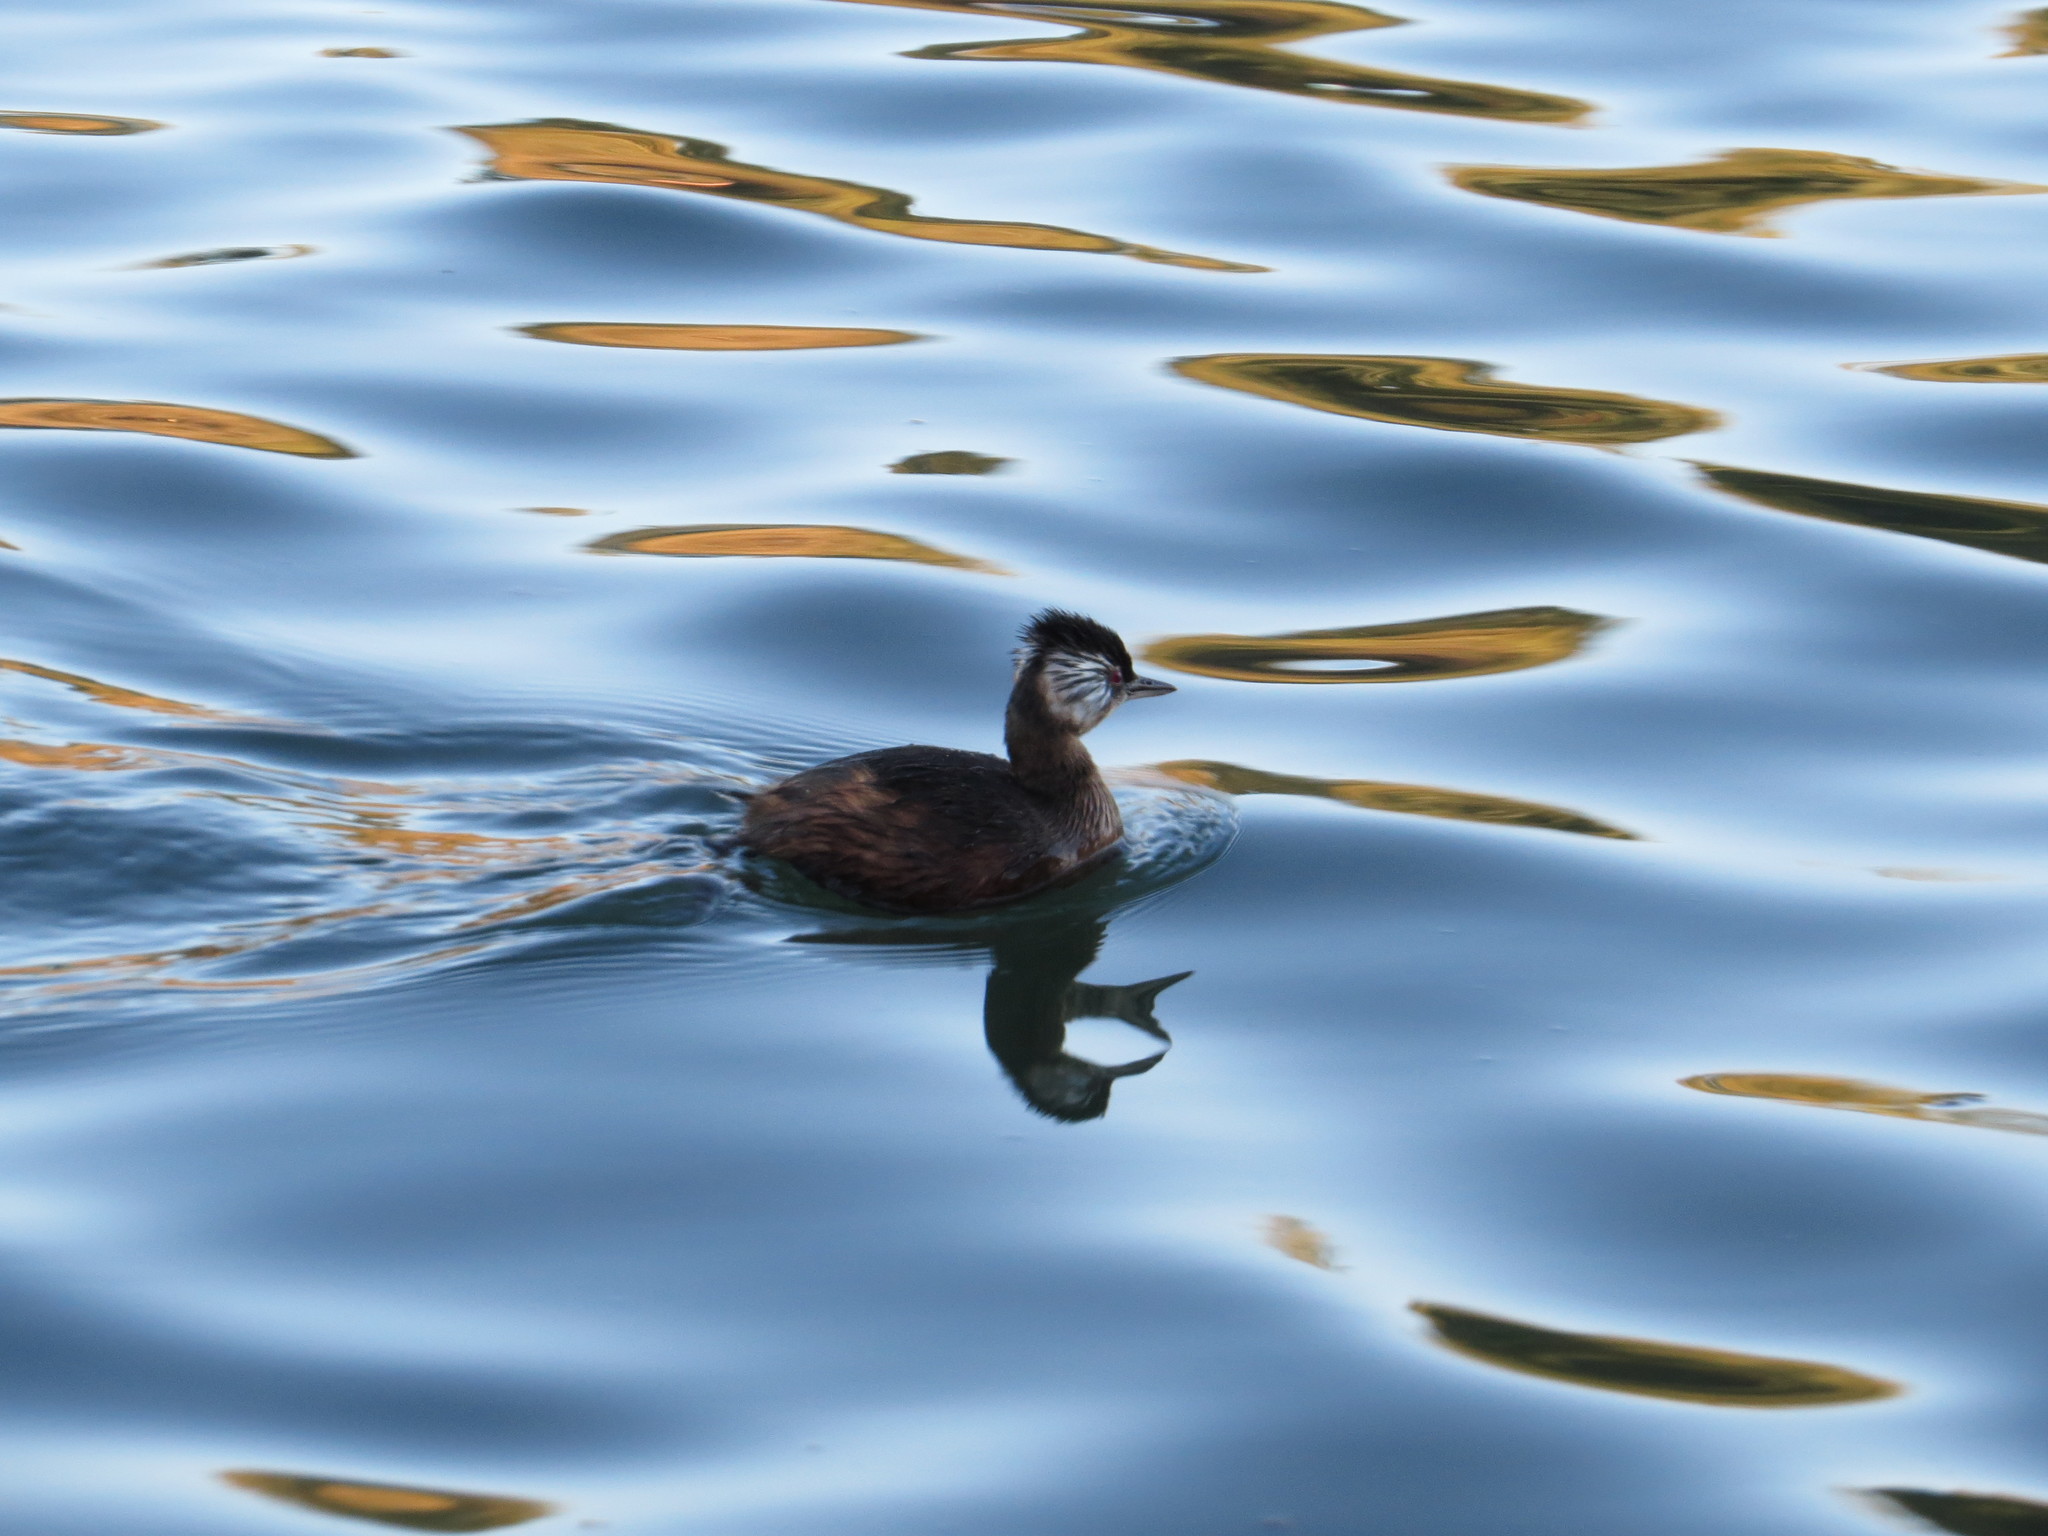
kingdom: Animalia
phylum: Chordata
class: Aves
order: Podicipediformes
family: Podicipedidae
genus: Rollandia
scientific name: Rollandia rolland
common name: White-tufted grebe
